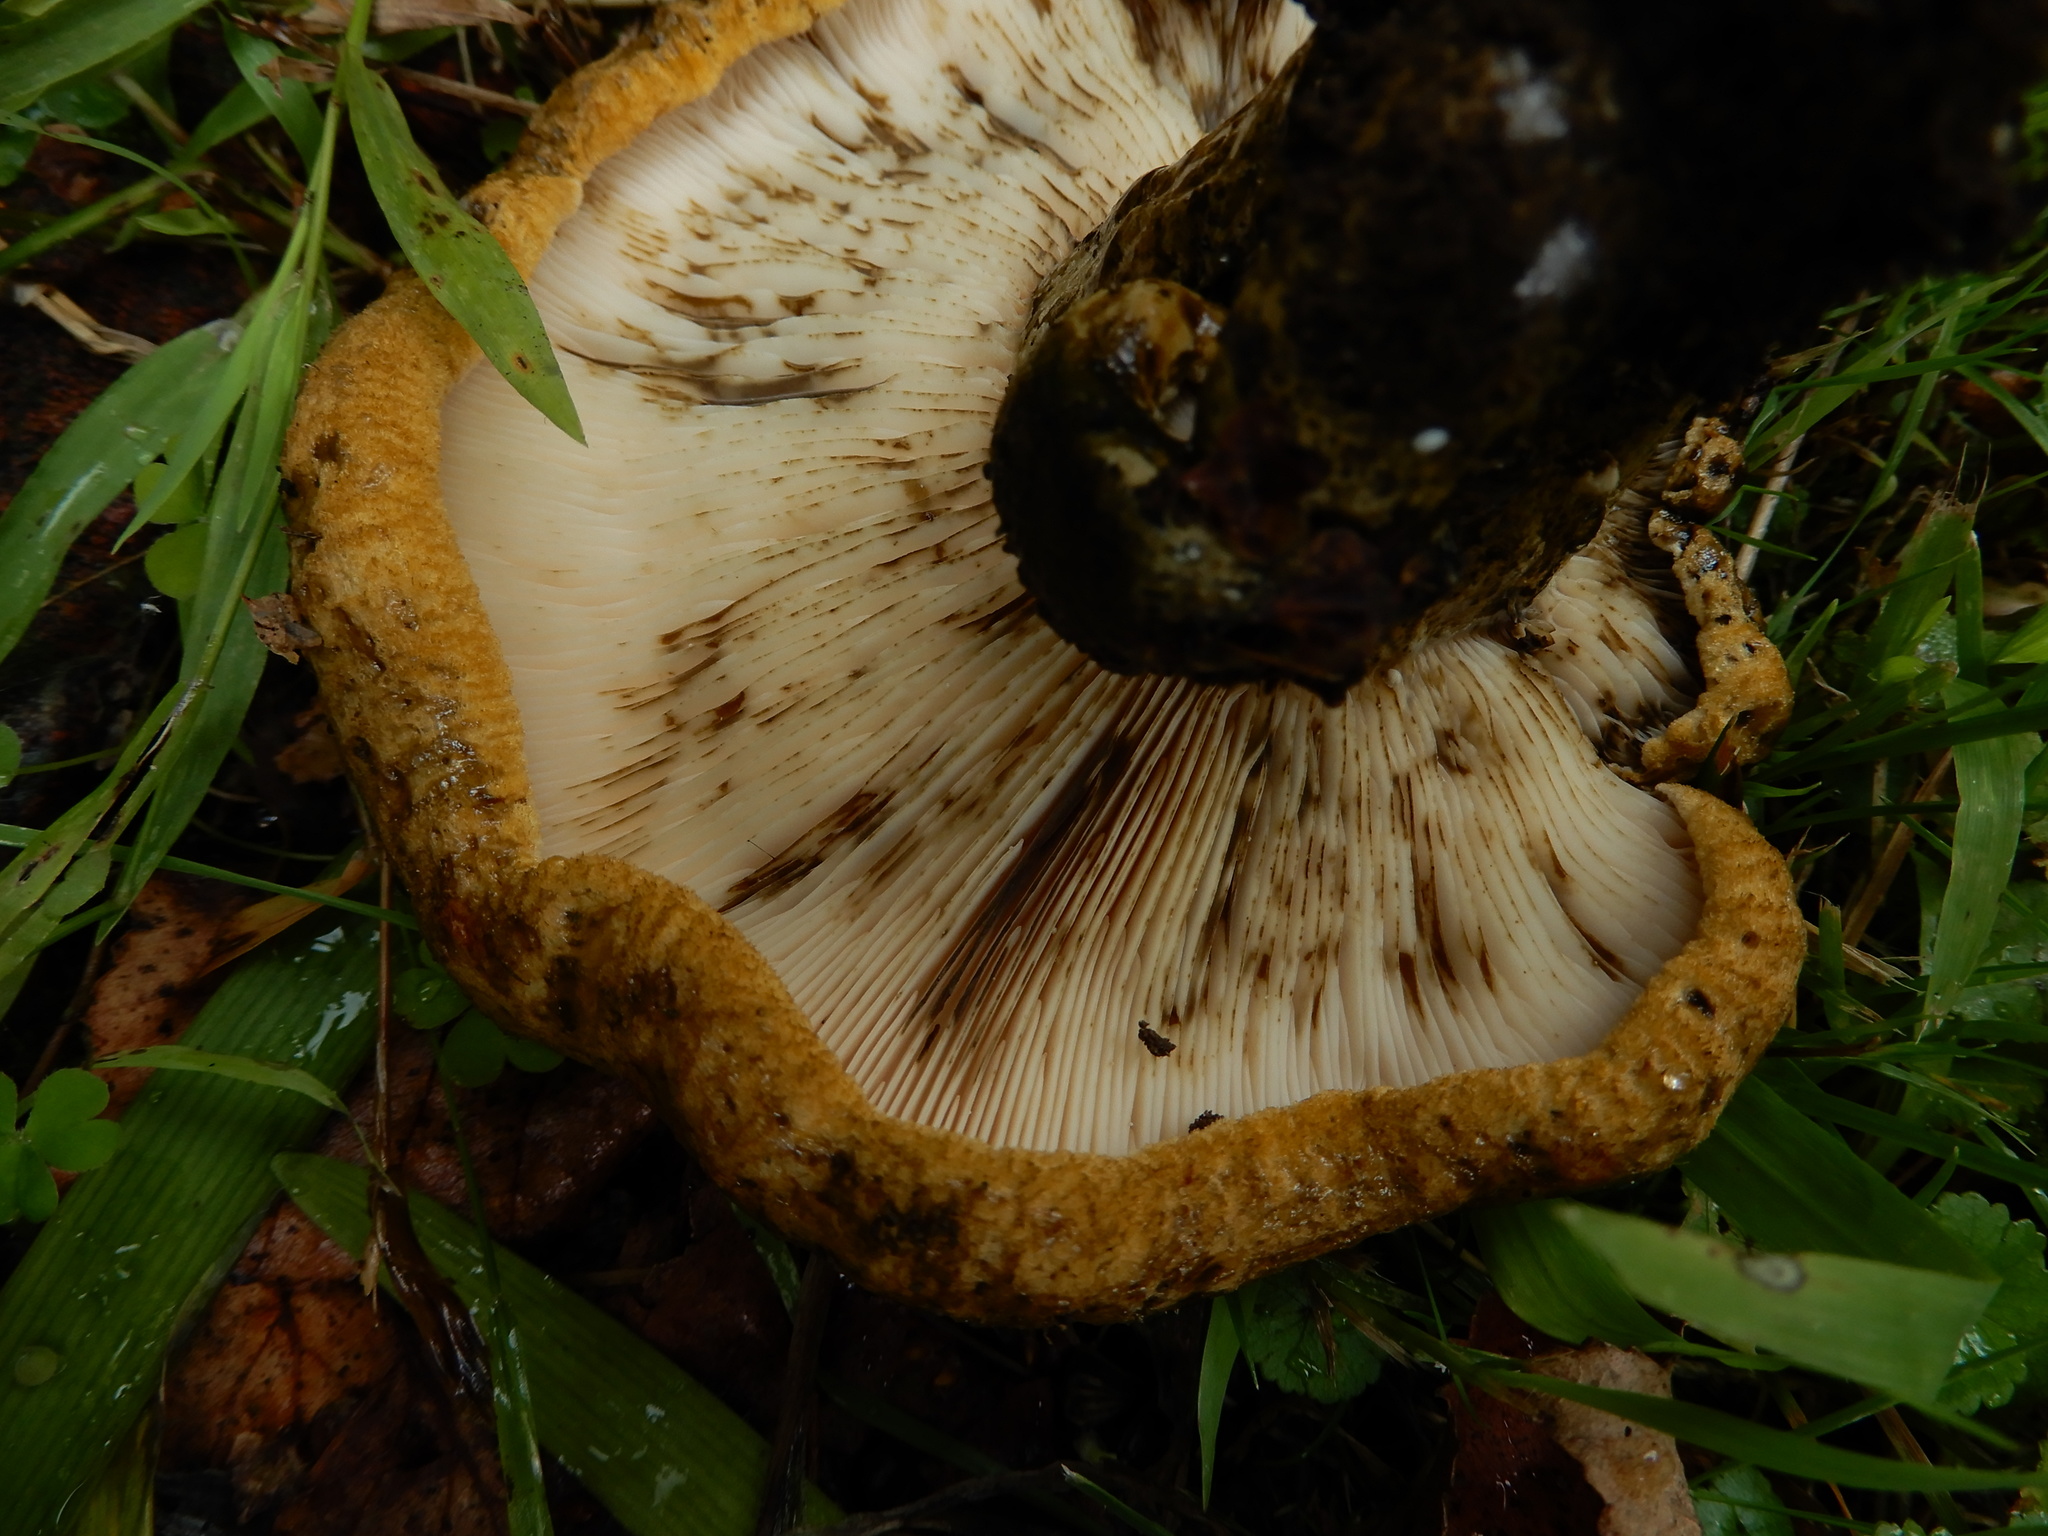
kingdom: Fungi
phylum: Basidiomycota
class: Agaricomycetes
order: Russulales
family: Russulaceae
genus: Lactarius
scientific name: Lactarius turpis
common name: Ugly milk-cap
